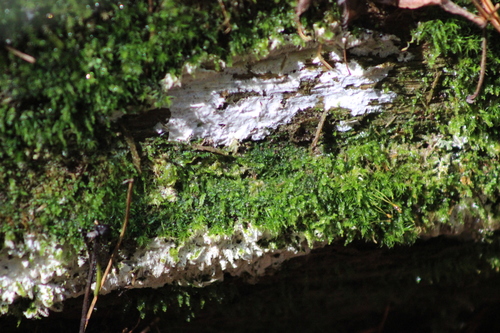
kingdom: Fungi
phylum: Basidiomycota
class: Agaricomycetes
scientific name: Agaricomycetes
